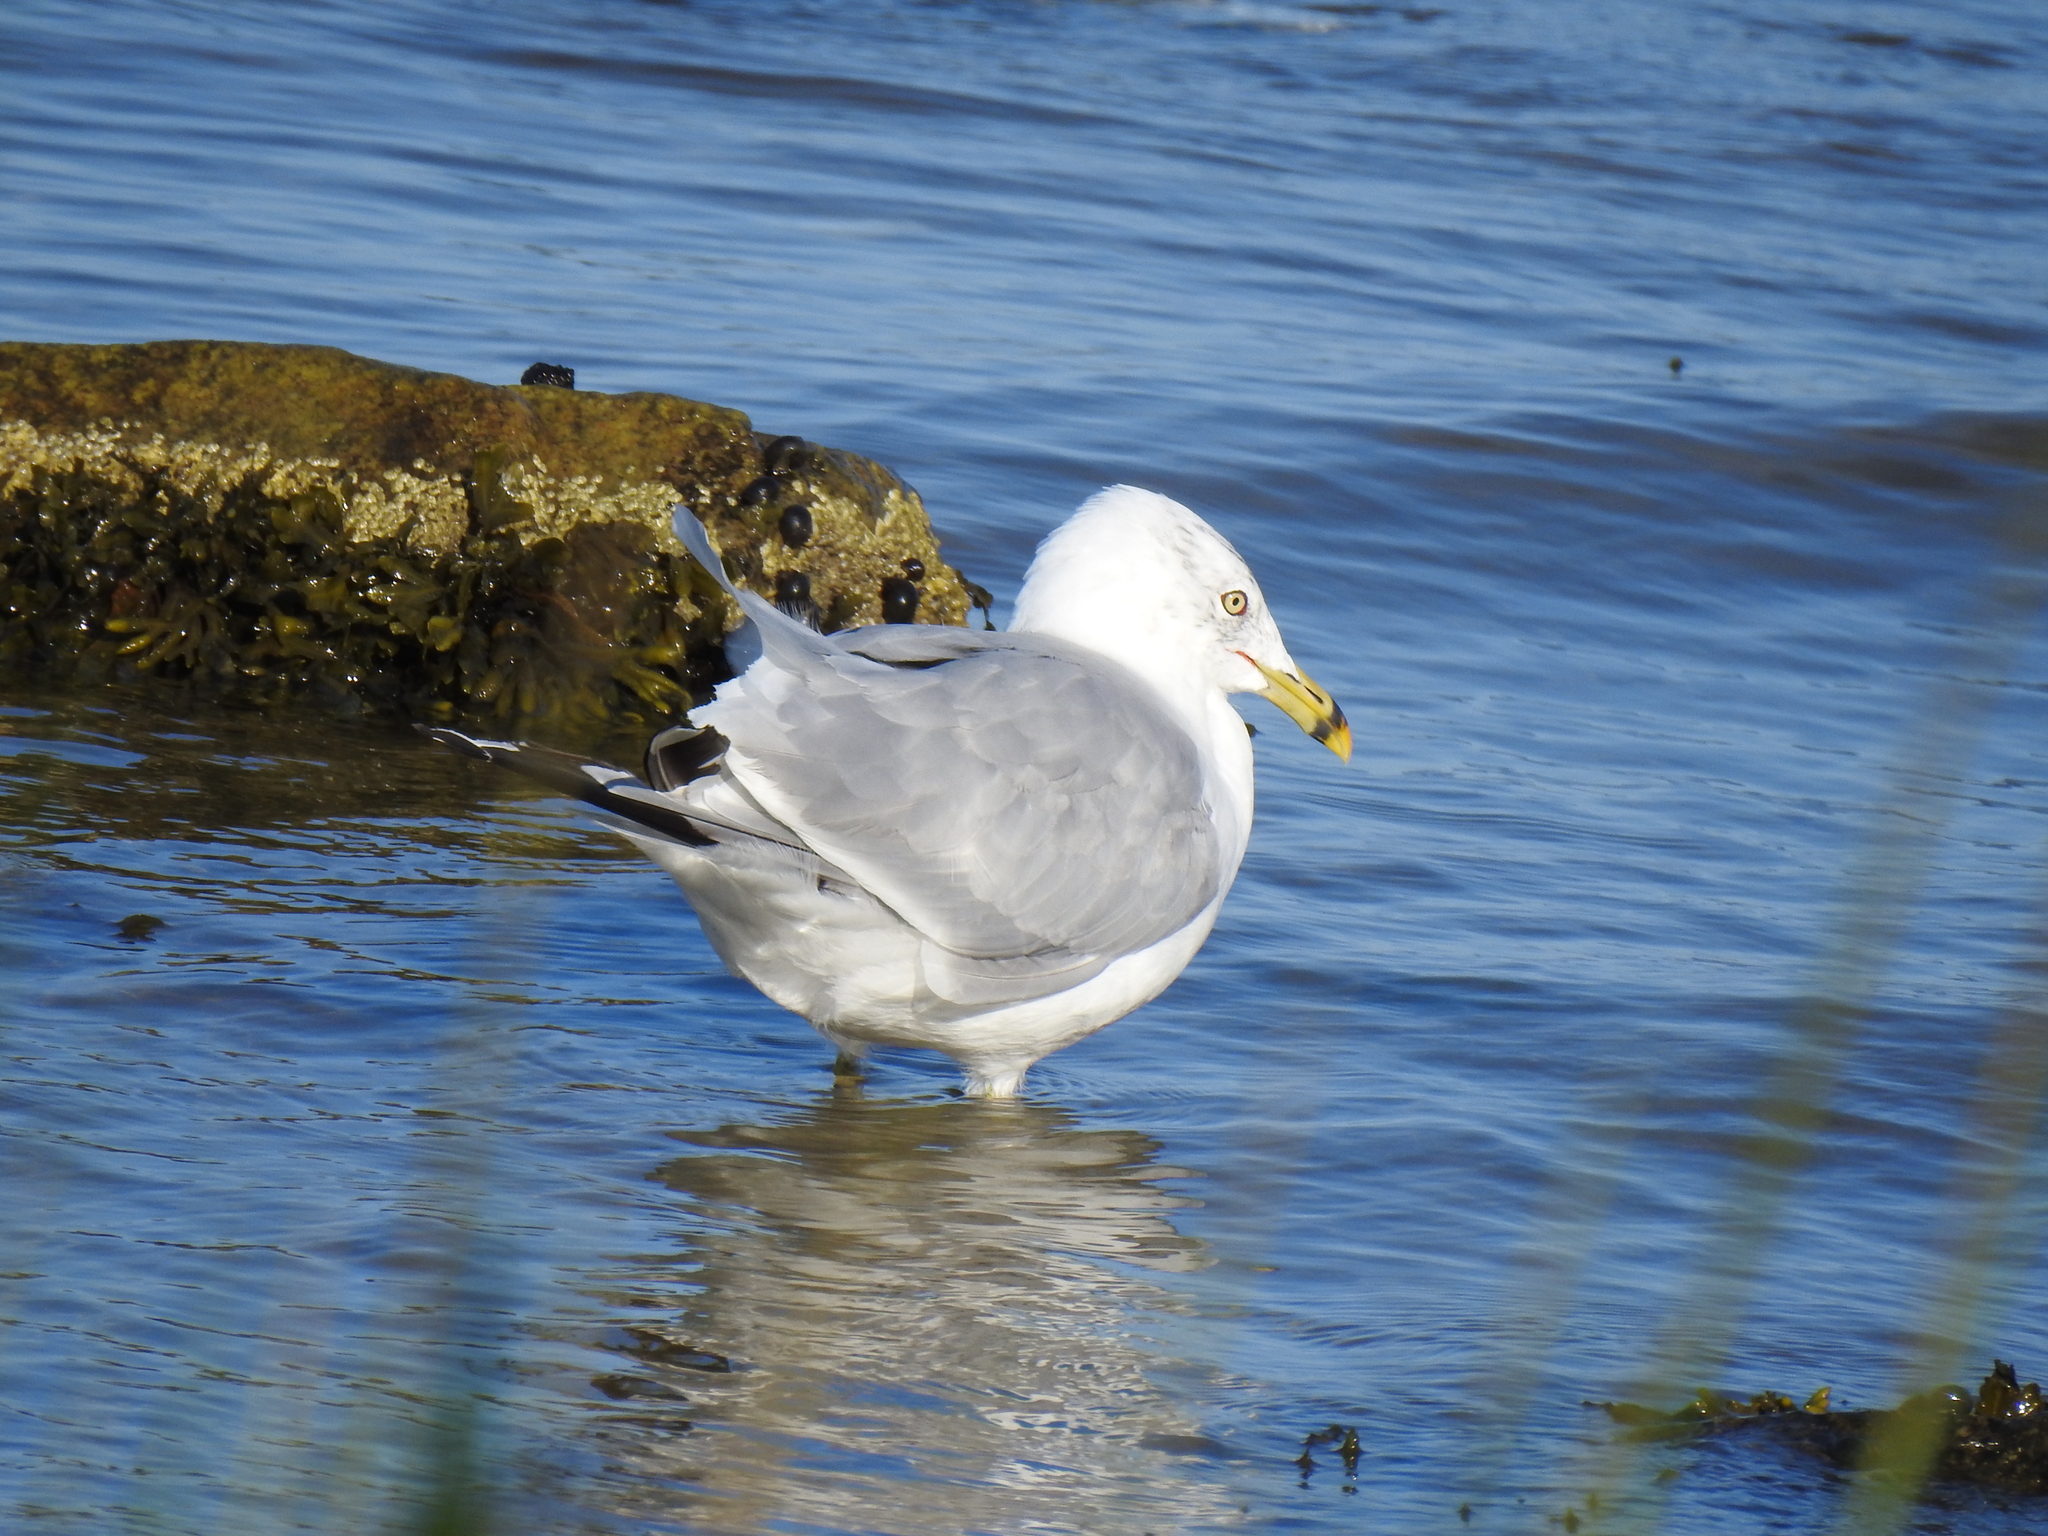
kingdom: Animalia
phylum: Chordata
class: Aves
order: Charadriiformes
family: Laridae
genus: Larus
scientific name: Larus delawarensis
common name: Ring-billed gull
